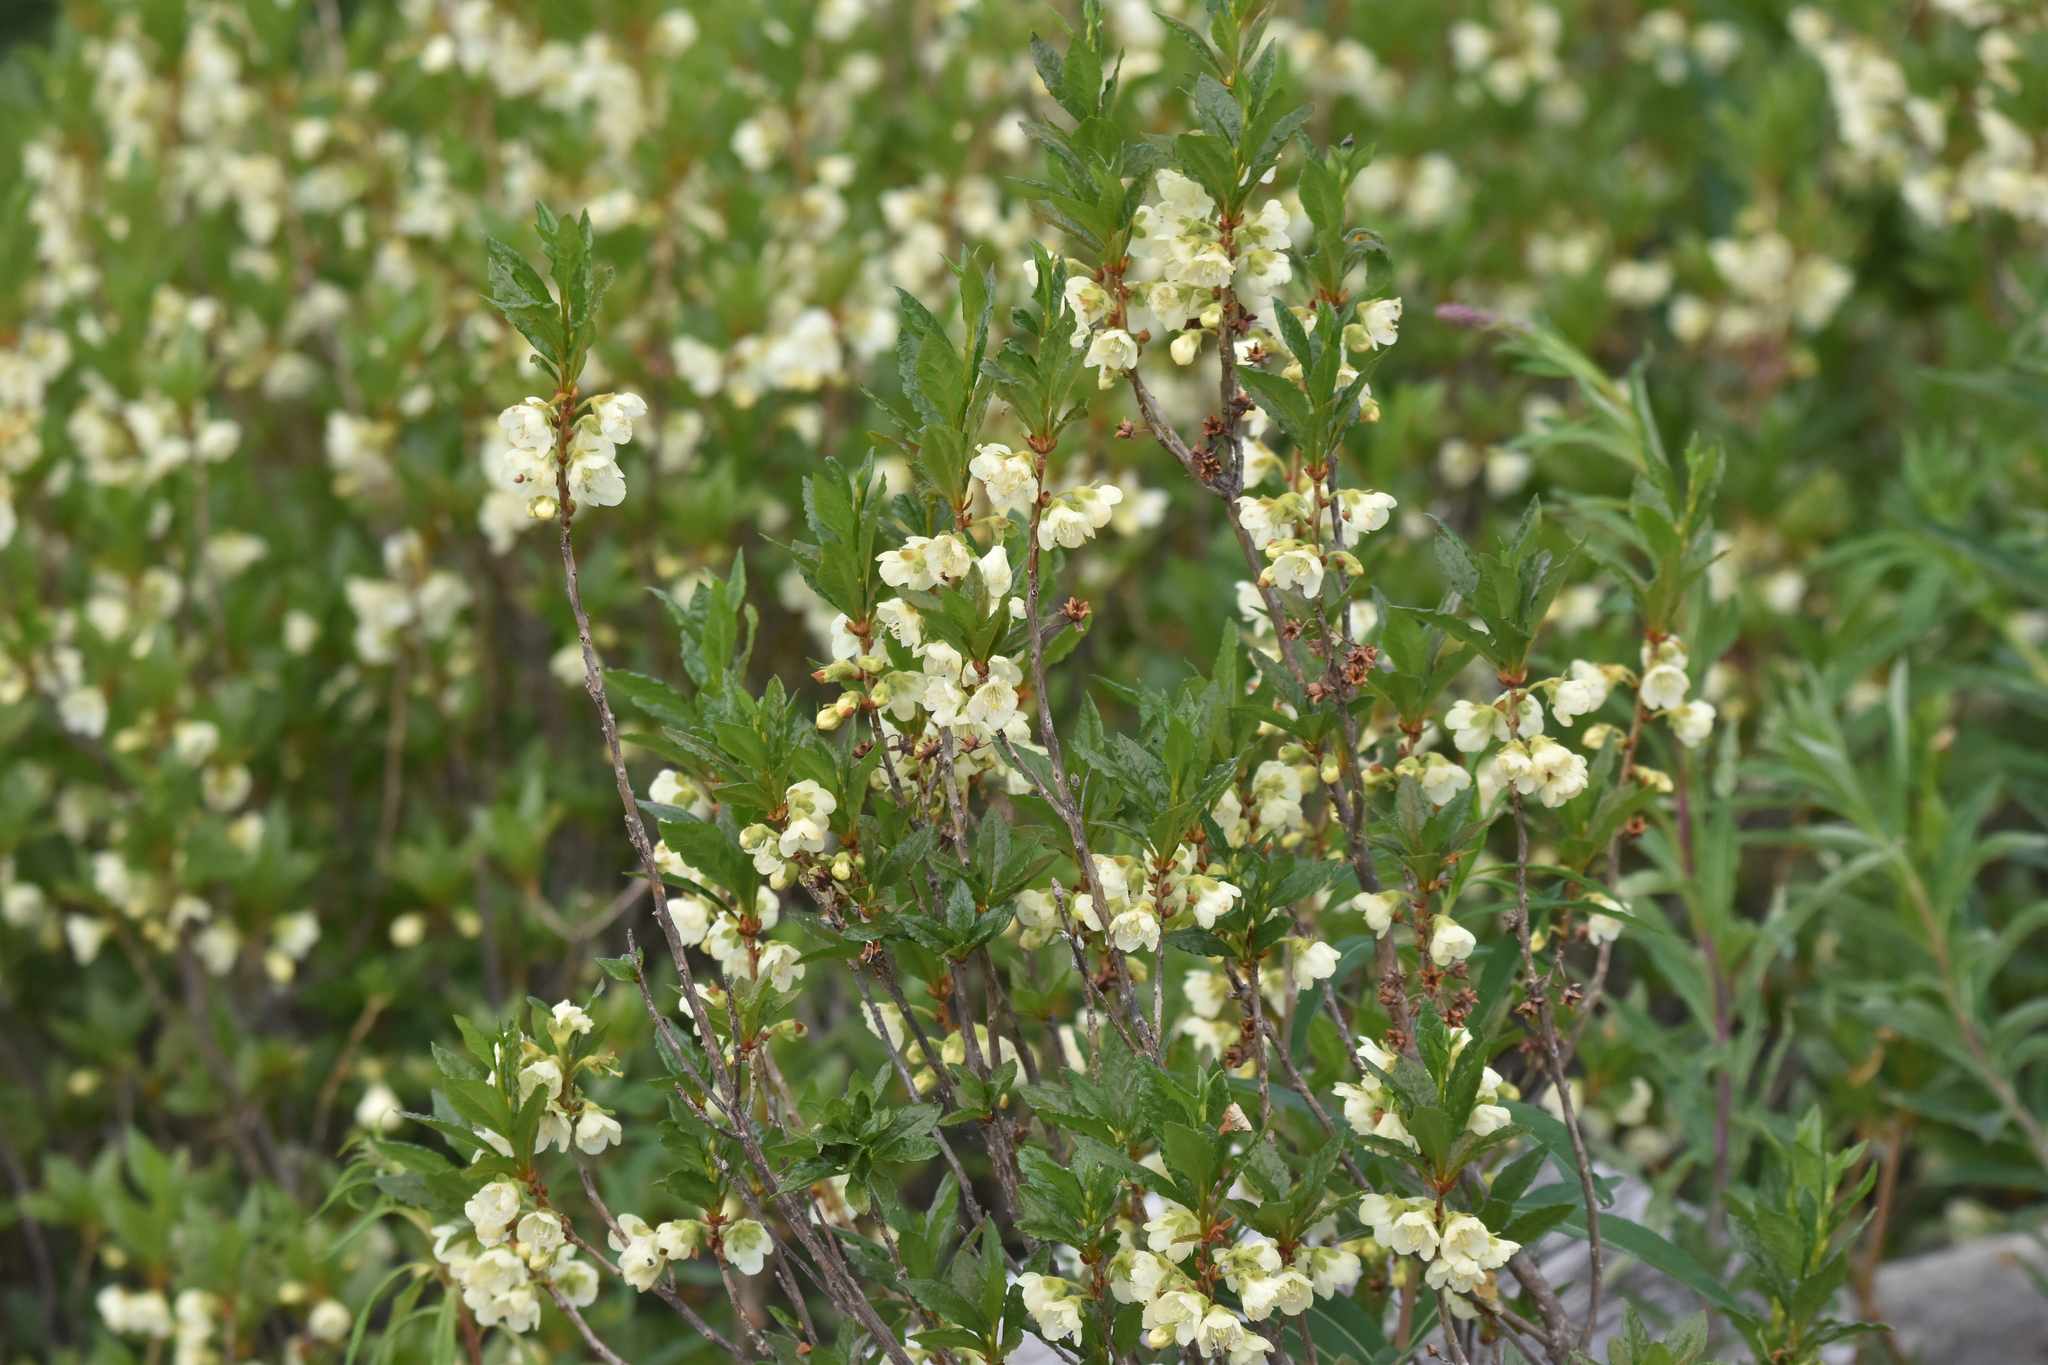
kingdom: Plantae
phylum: Tracheophyta
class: Magnoliopsida
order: Ericales
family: Ericaceae
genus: Rhododendron
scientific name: Rhododendron albiflorum
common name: White rhododendron
